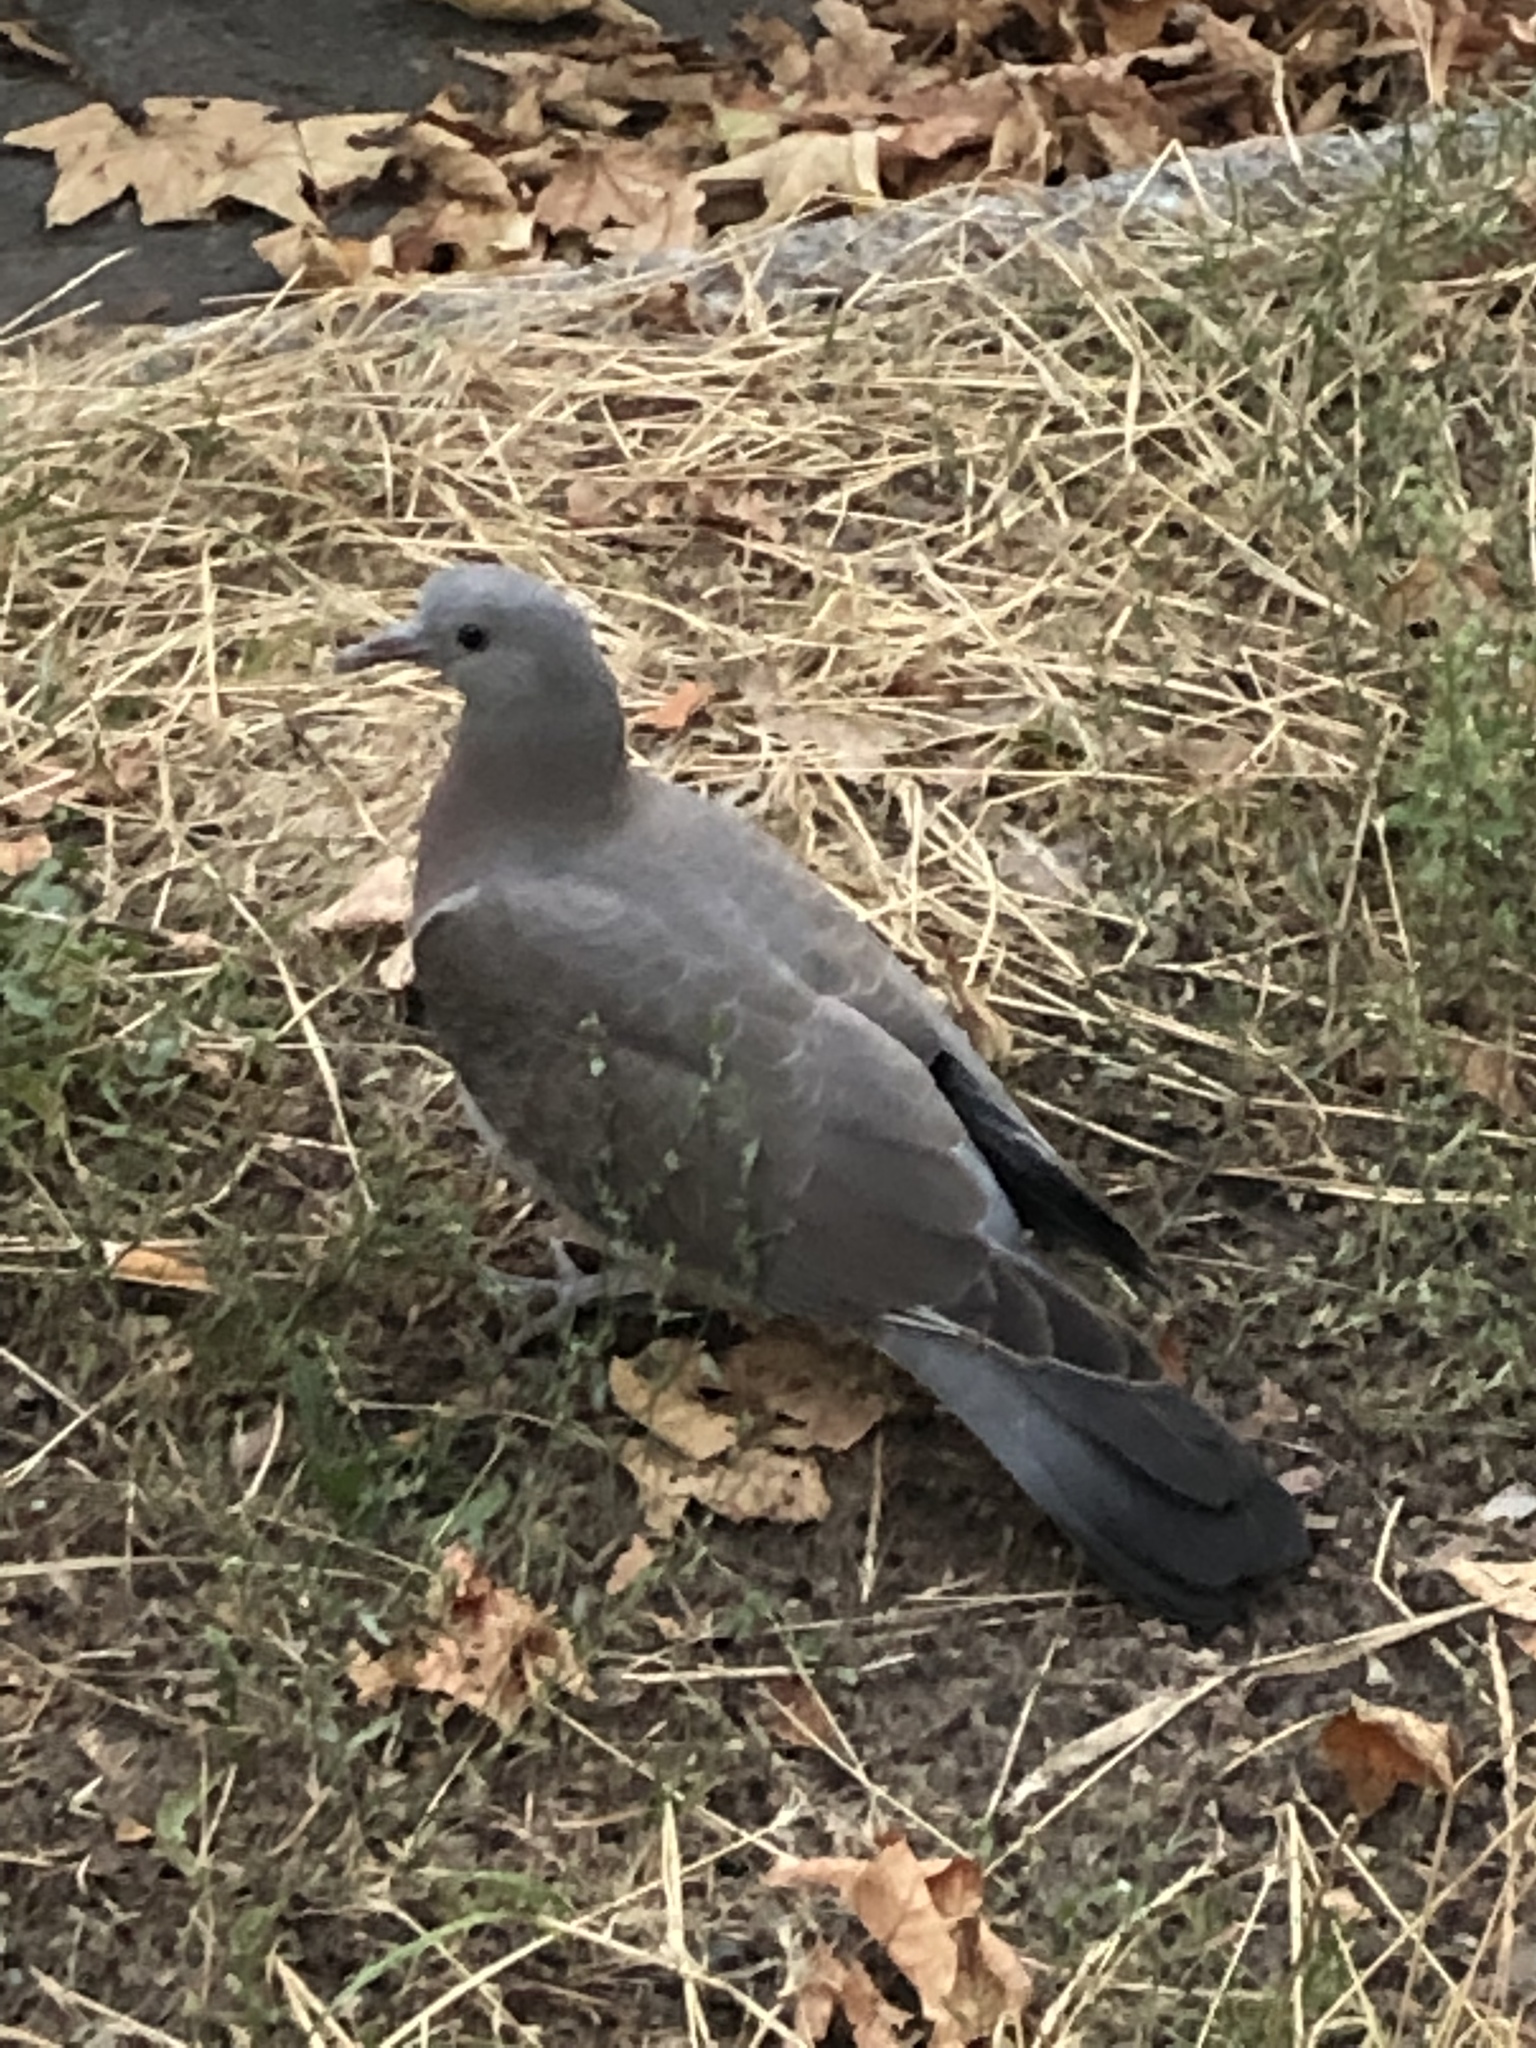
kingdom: Animalia
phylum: Chordata
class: Aves
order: Columbiformes
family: Columbidae
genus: Columba
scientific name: Columba palumbus
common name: Common wood pigeon
